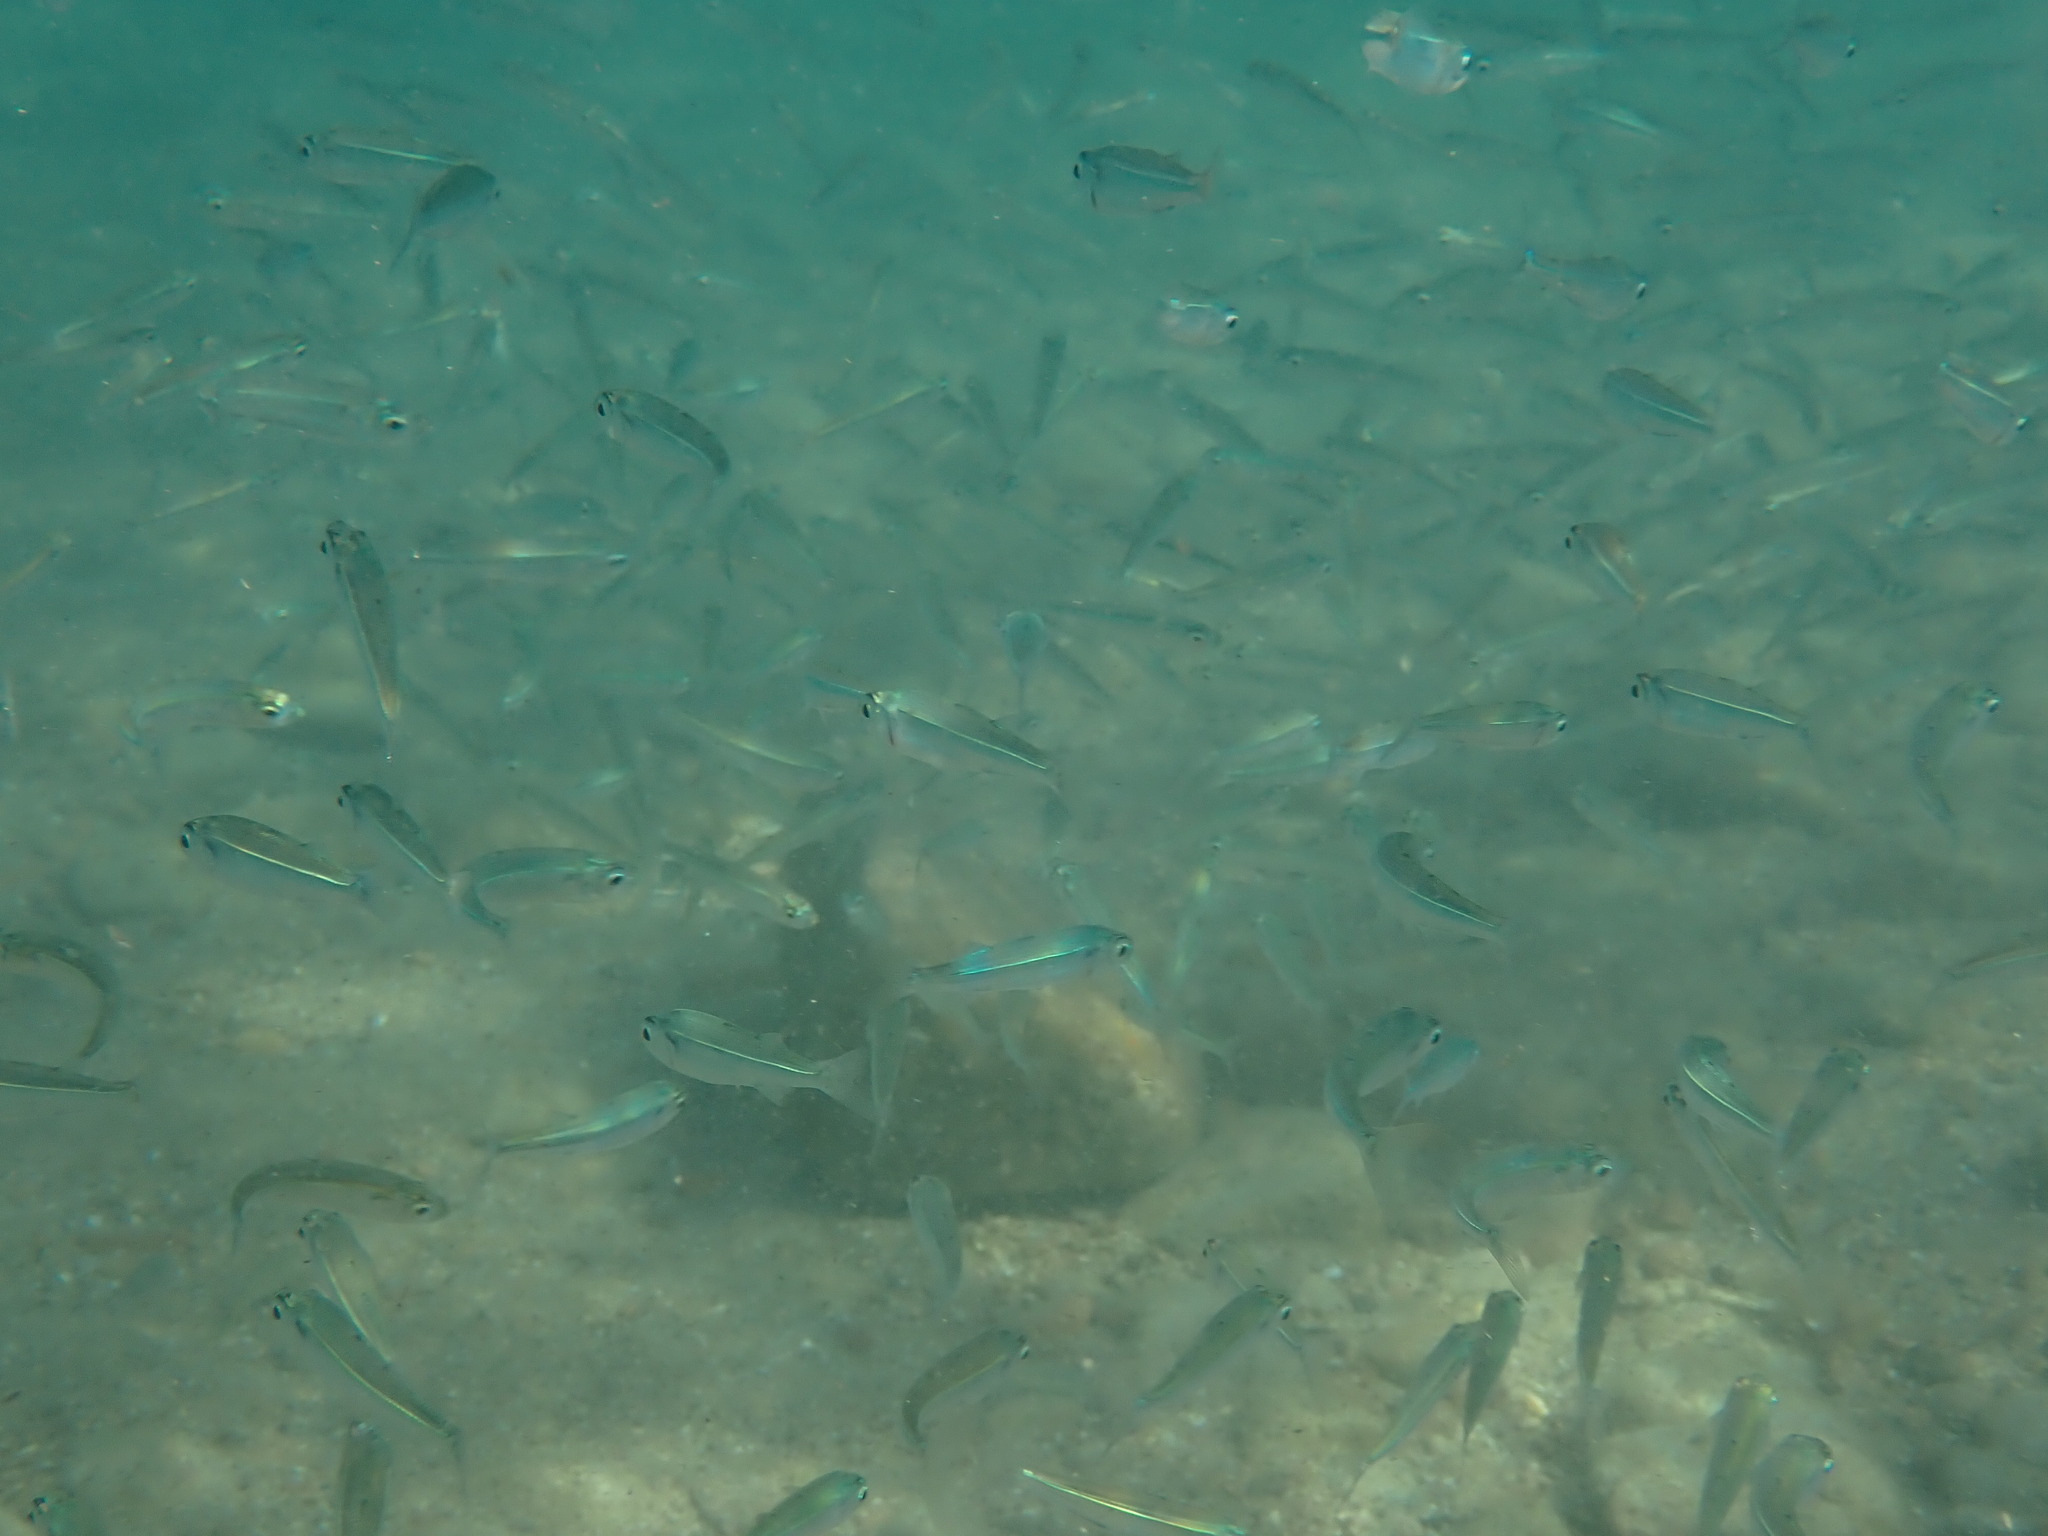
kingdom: Animalia
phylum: Chordata
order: Atheriniformes
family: Atherinidae
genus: Atherina
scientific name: Atherina boyeri
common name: Big-scale sand smelt
